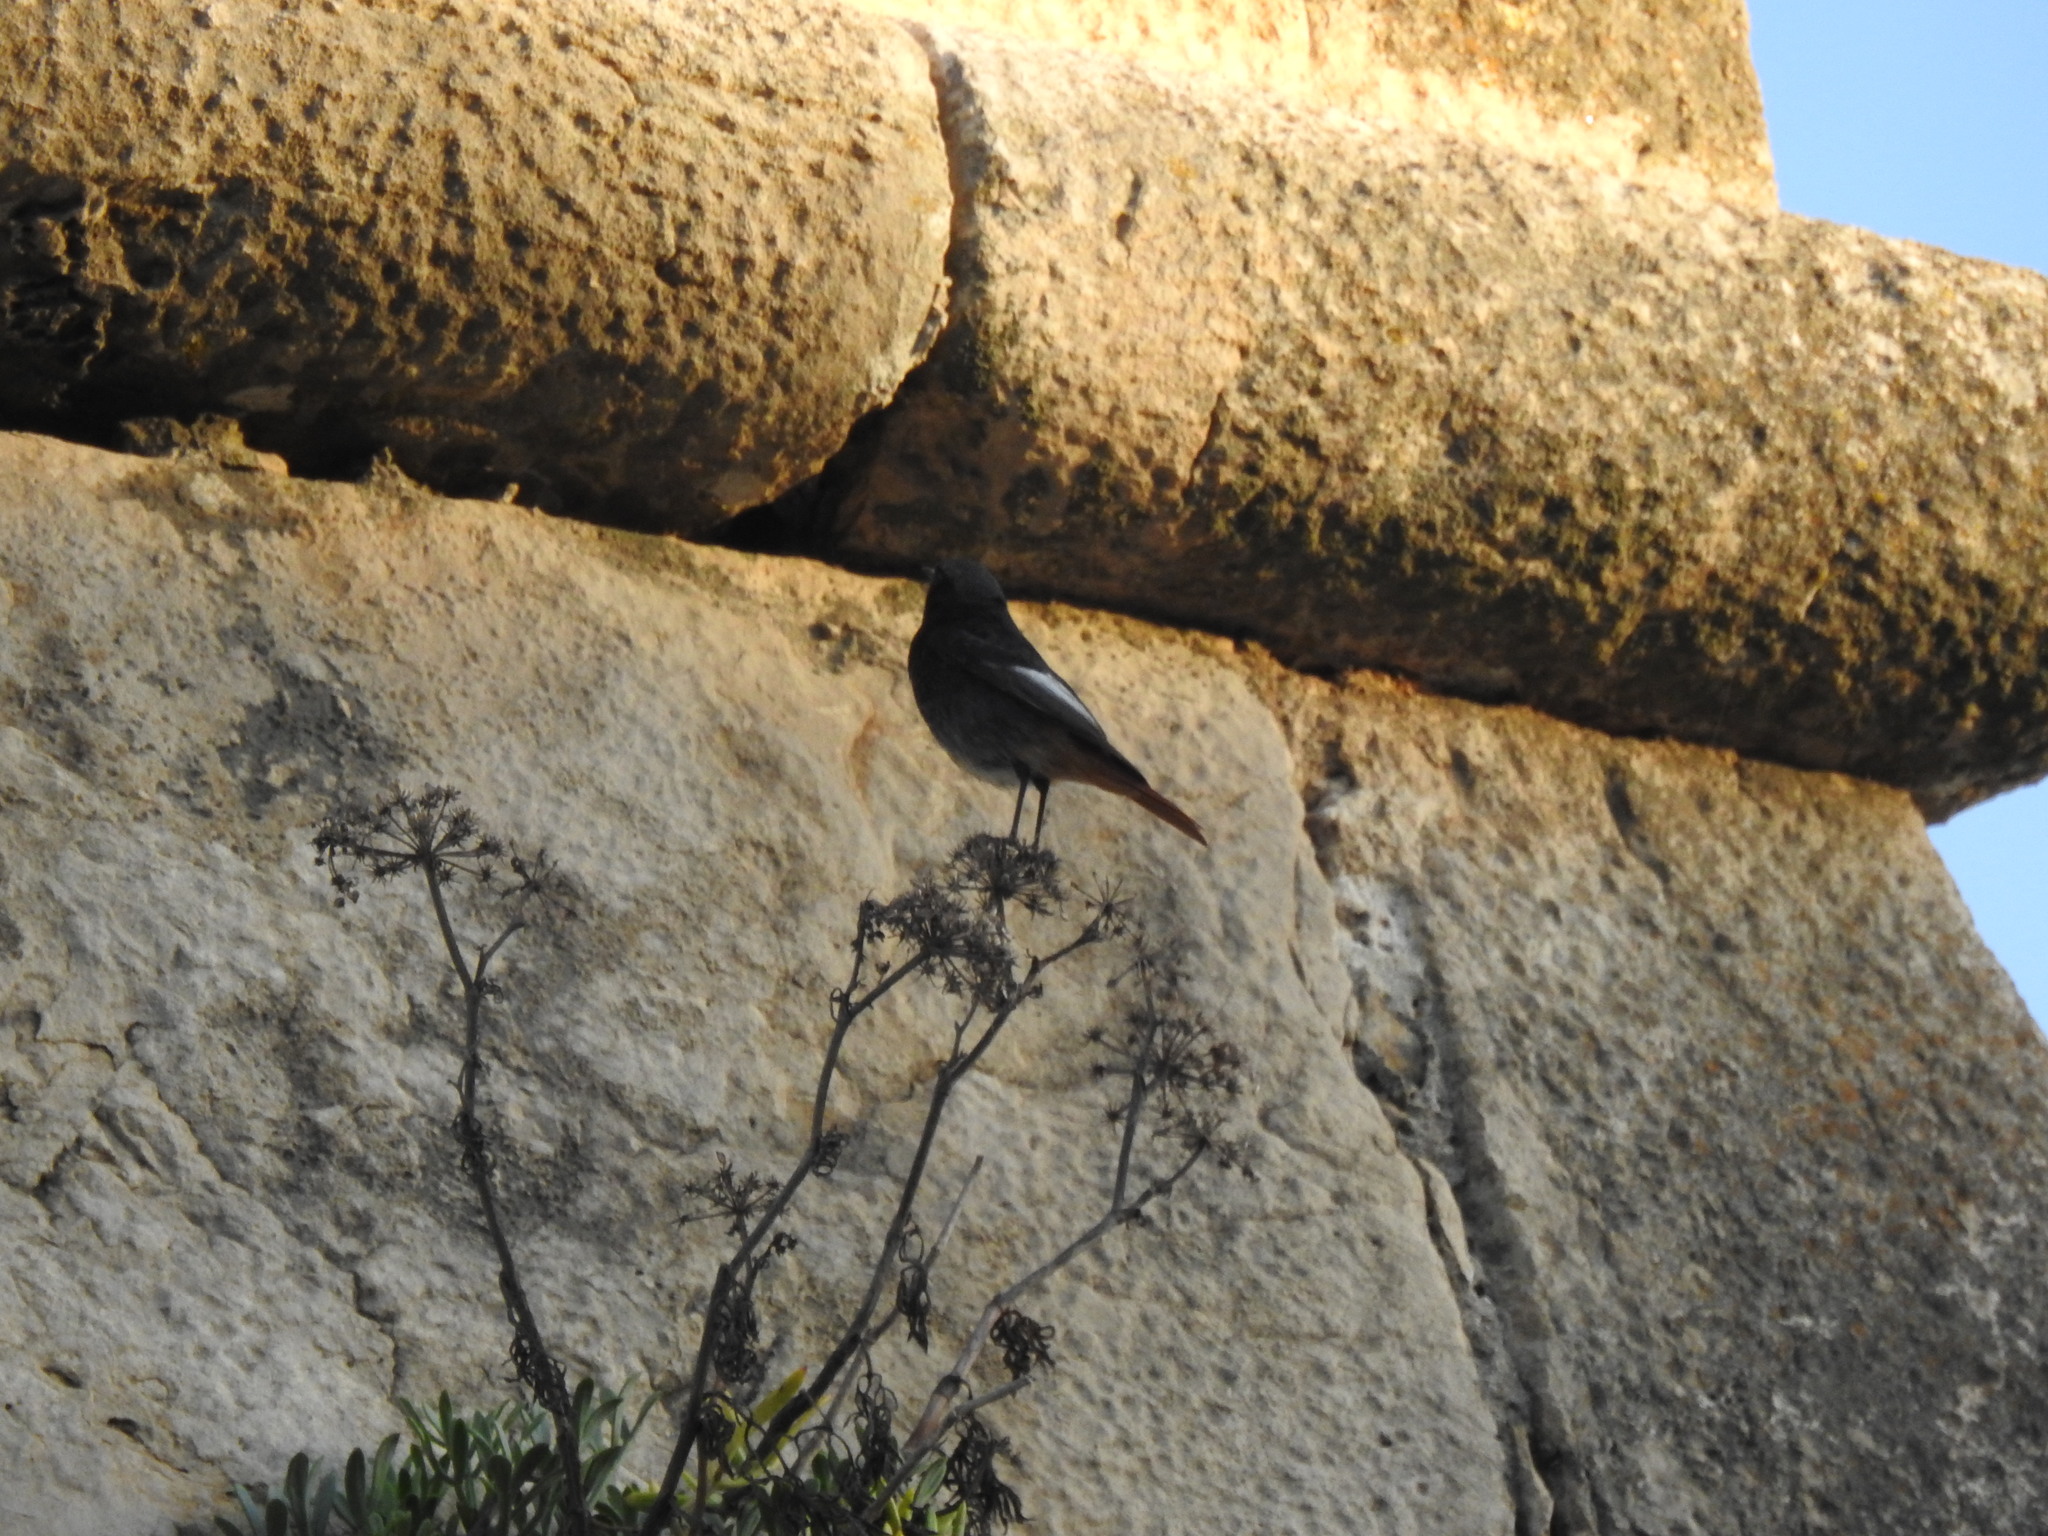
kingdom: Animalia
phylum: Chordata
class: Aves
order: Passeriformes
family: Muscicapidae
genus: Phoenicurus
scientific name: Phoenicurus ochruros
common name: Black redstart
